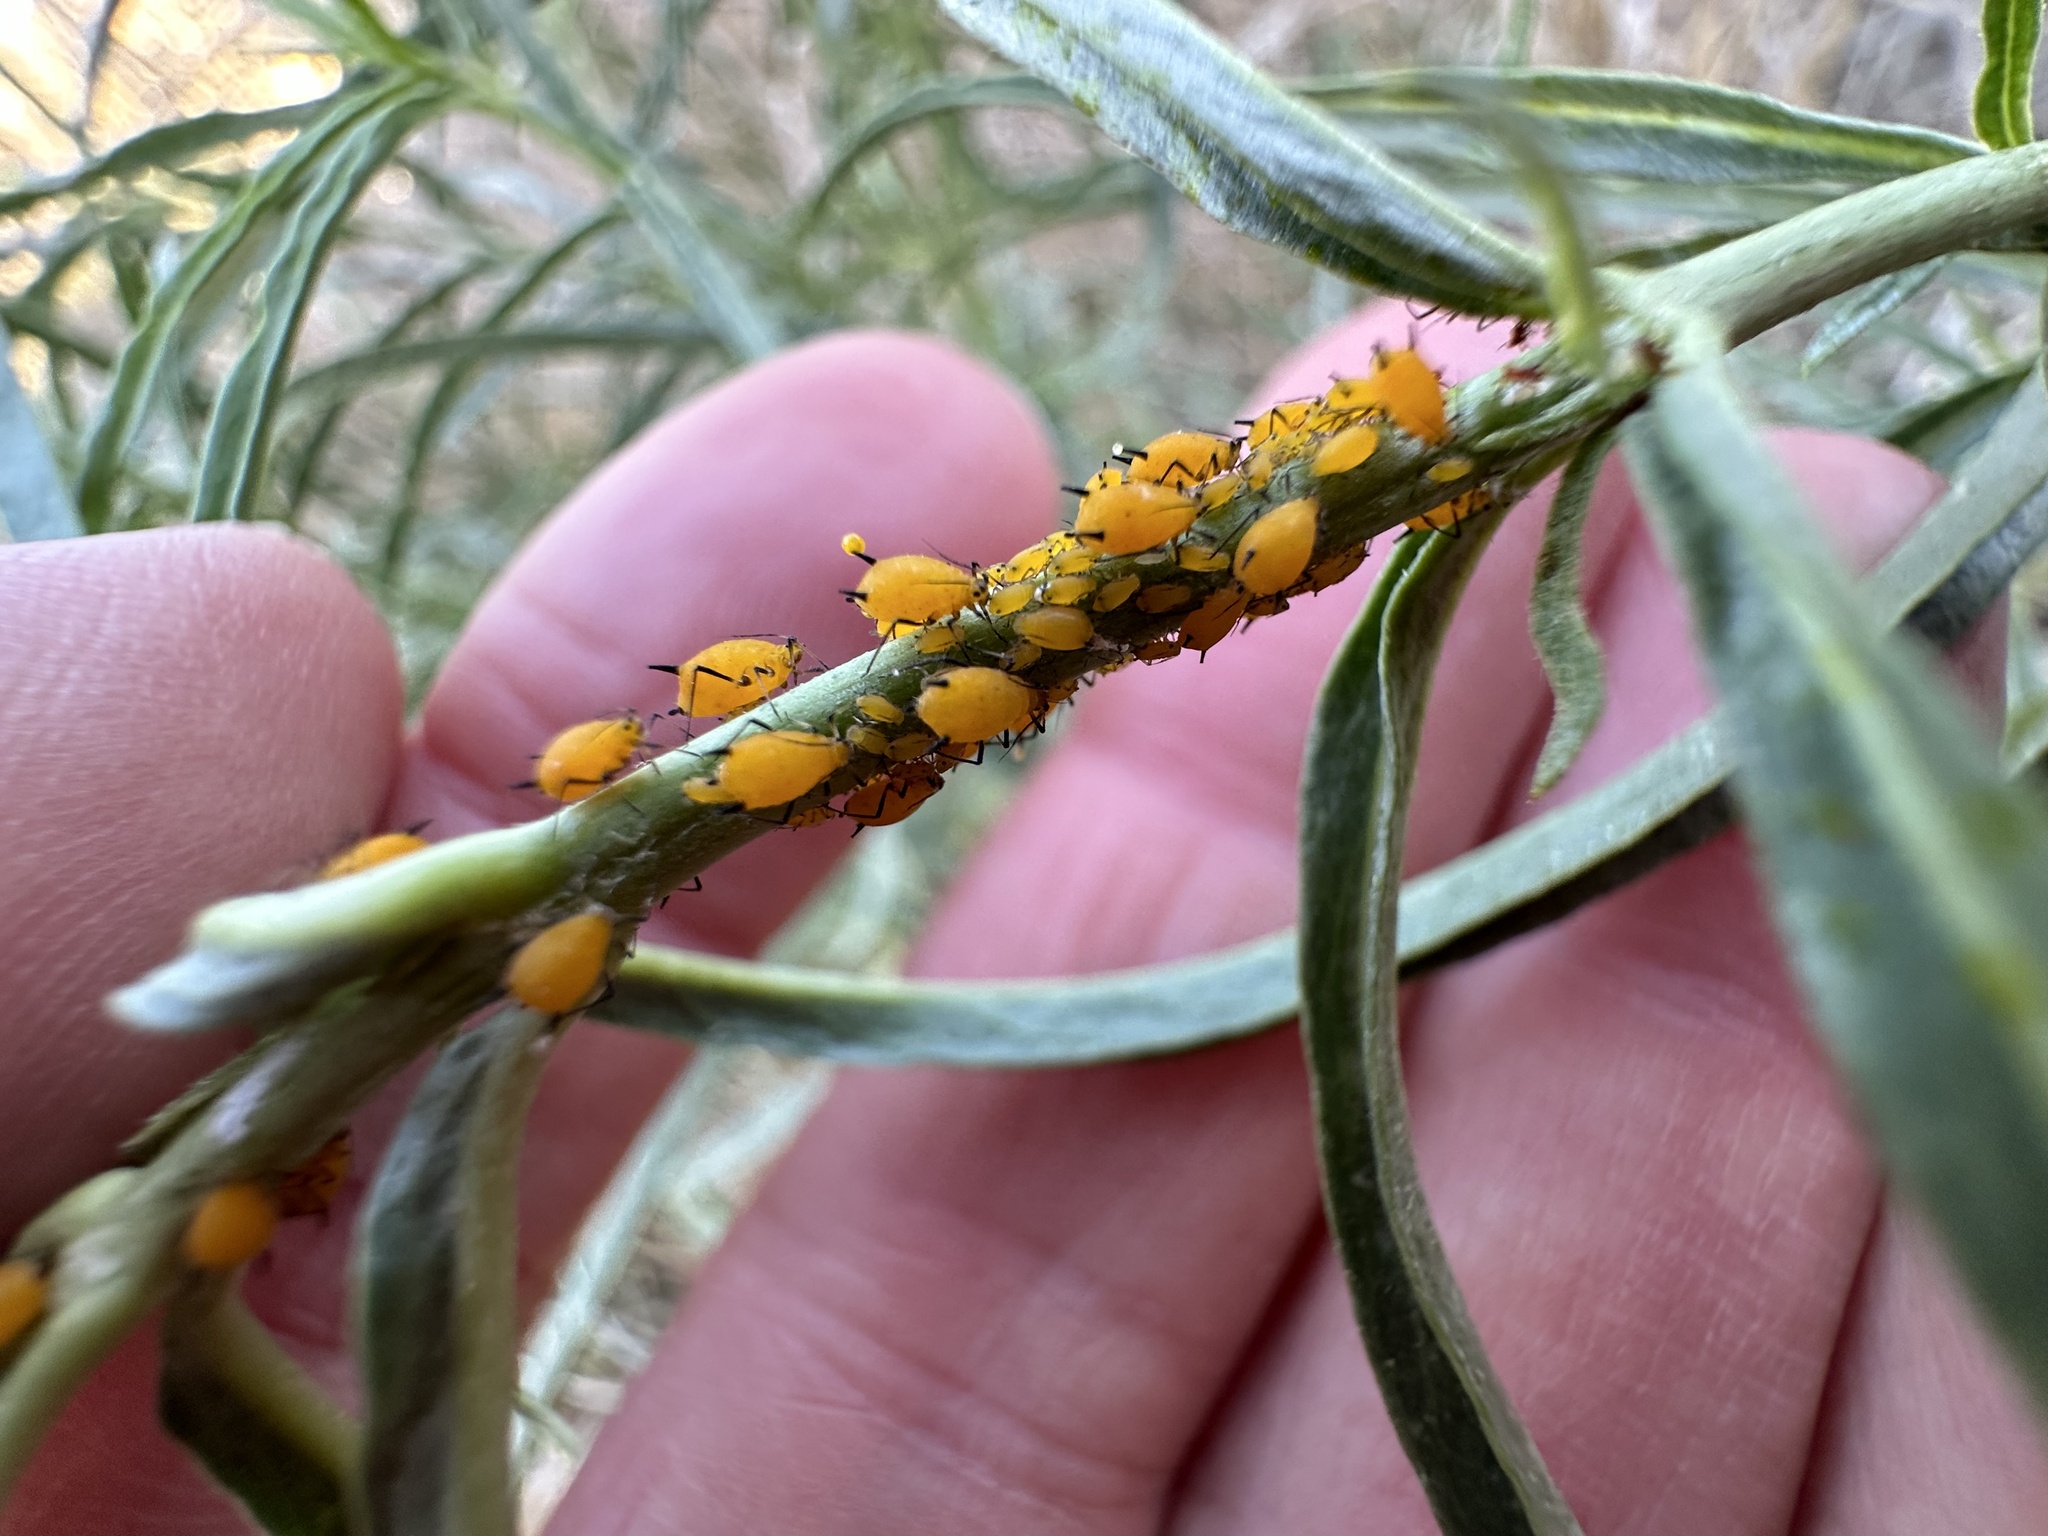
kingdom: Animalia
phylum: Arthropoda
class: Insecta
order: Hemiptera
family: Aphididae
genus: Aphis
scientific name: Aphis nerii
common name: Oleander aphid
